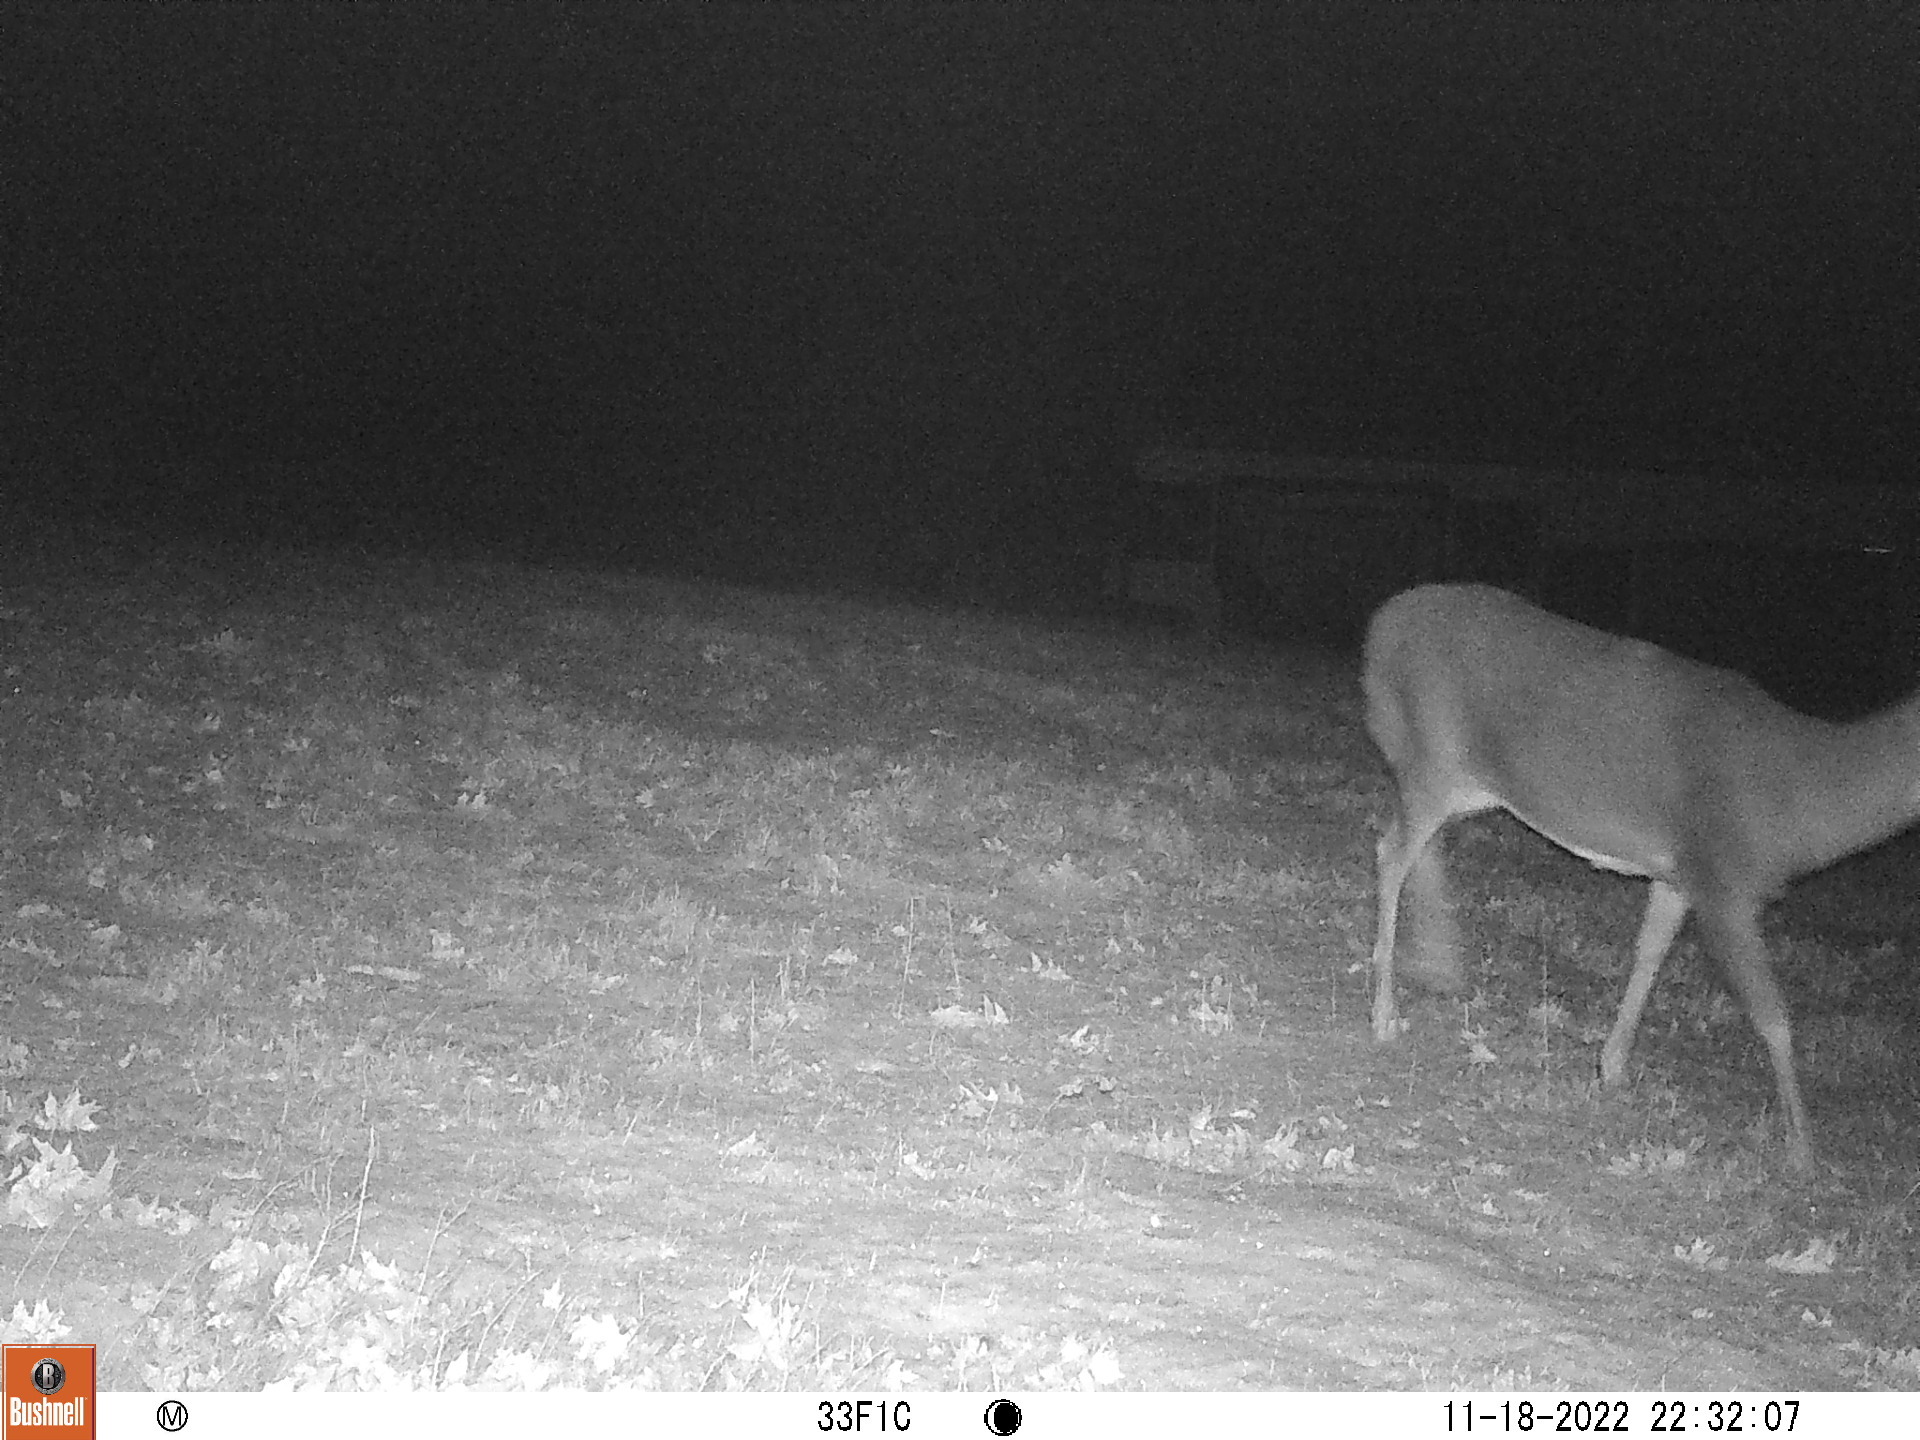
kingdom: Animalia
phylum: Chordata
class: Mammalia
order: Artiodactyla
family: Cervidae
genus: Odocoileus
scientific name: Odocoileus virginianus
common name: White-tailed deer
